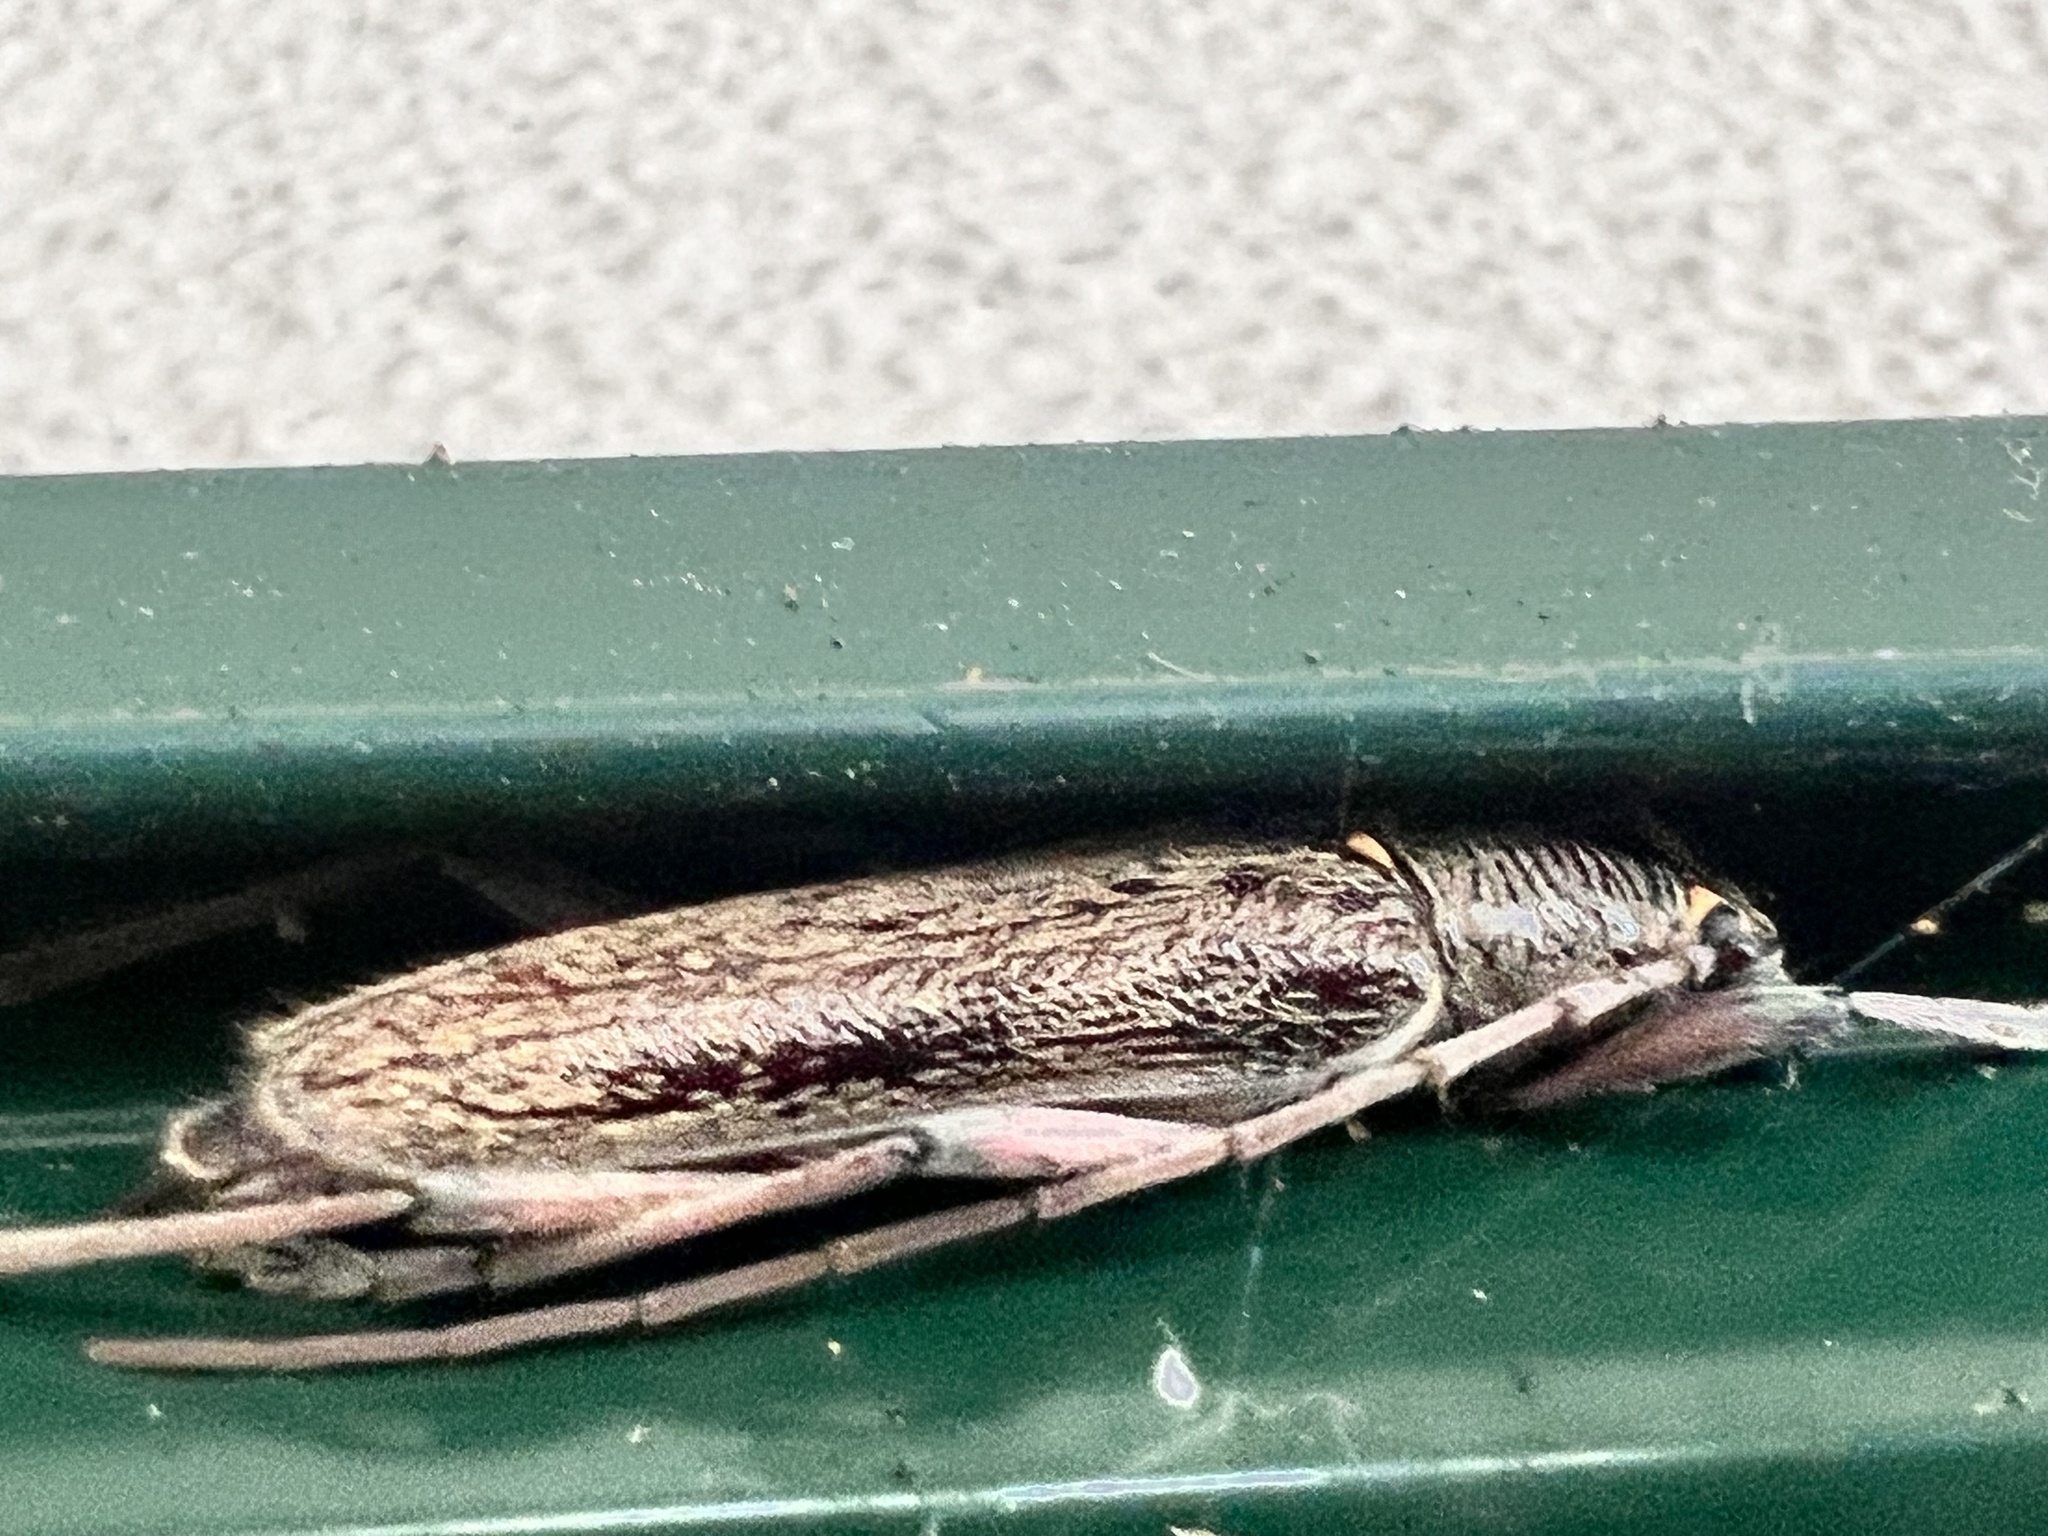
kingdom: Animalia
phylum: Arthropoda
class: Insecta
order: Coleoptera
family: Cerambycidae
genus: Oemona
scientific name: Oemona hirta
